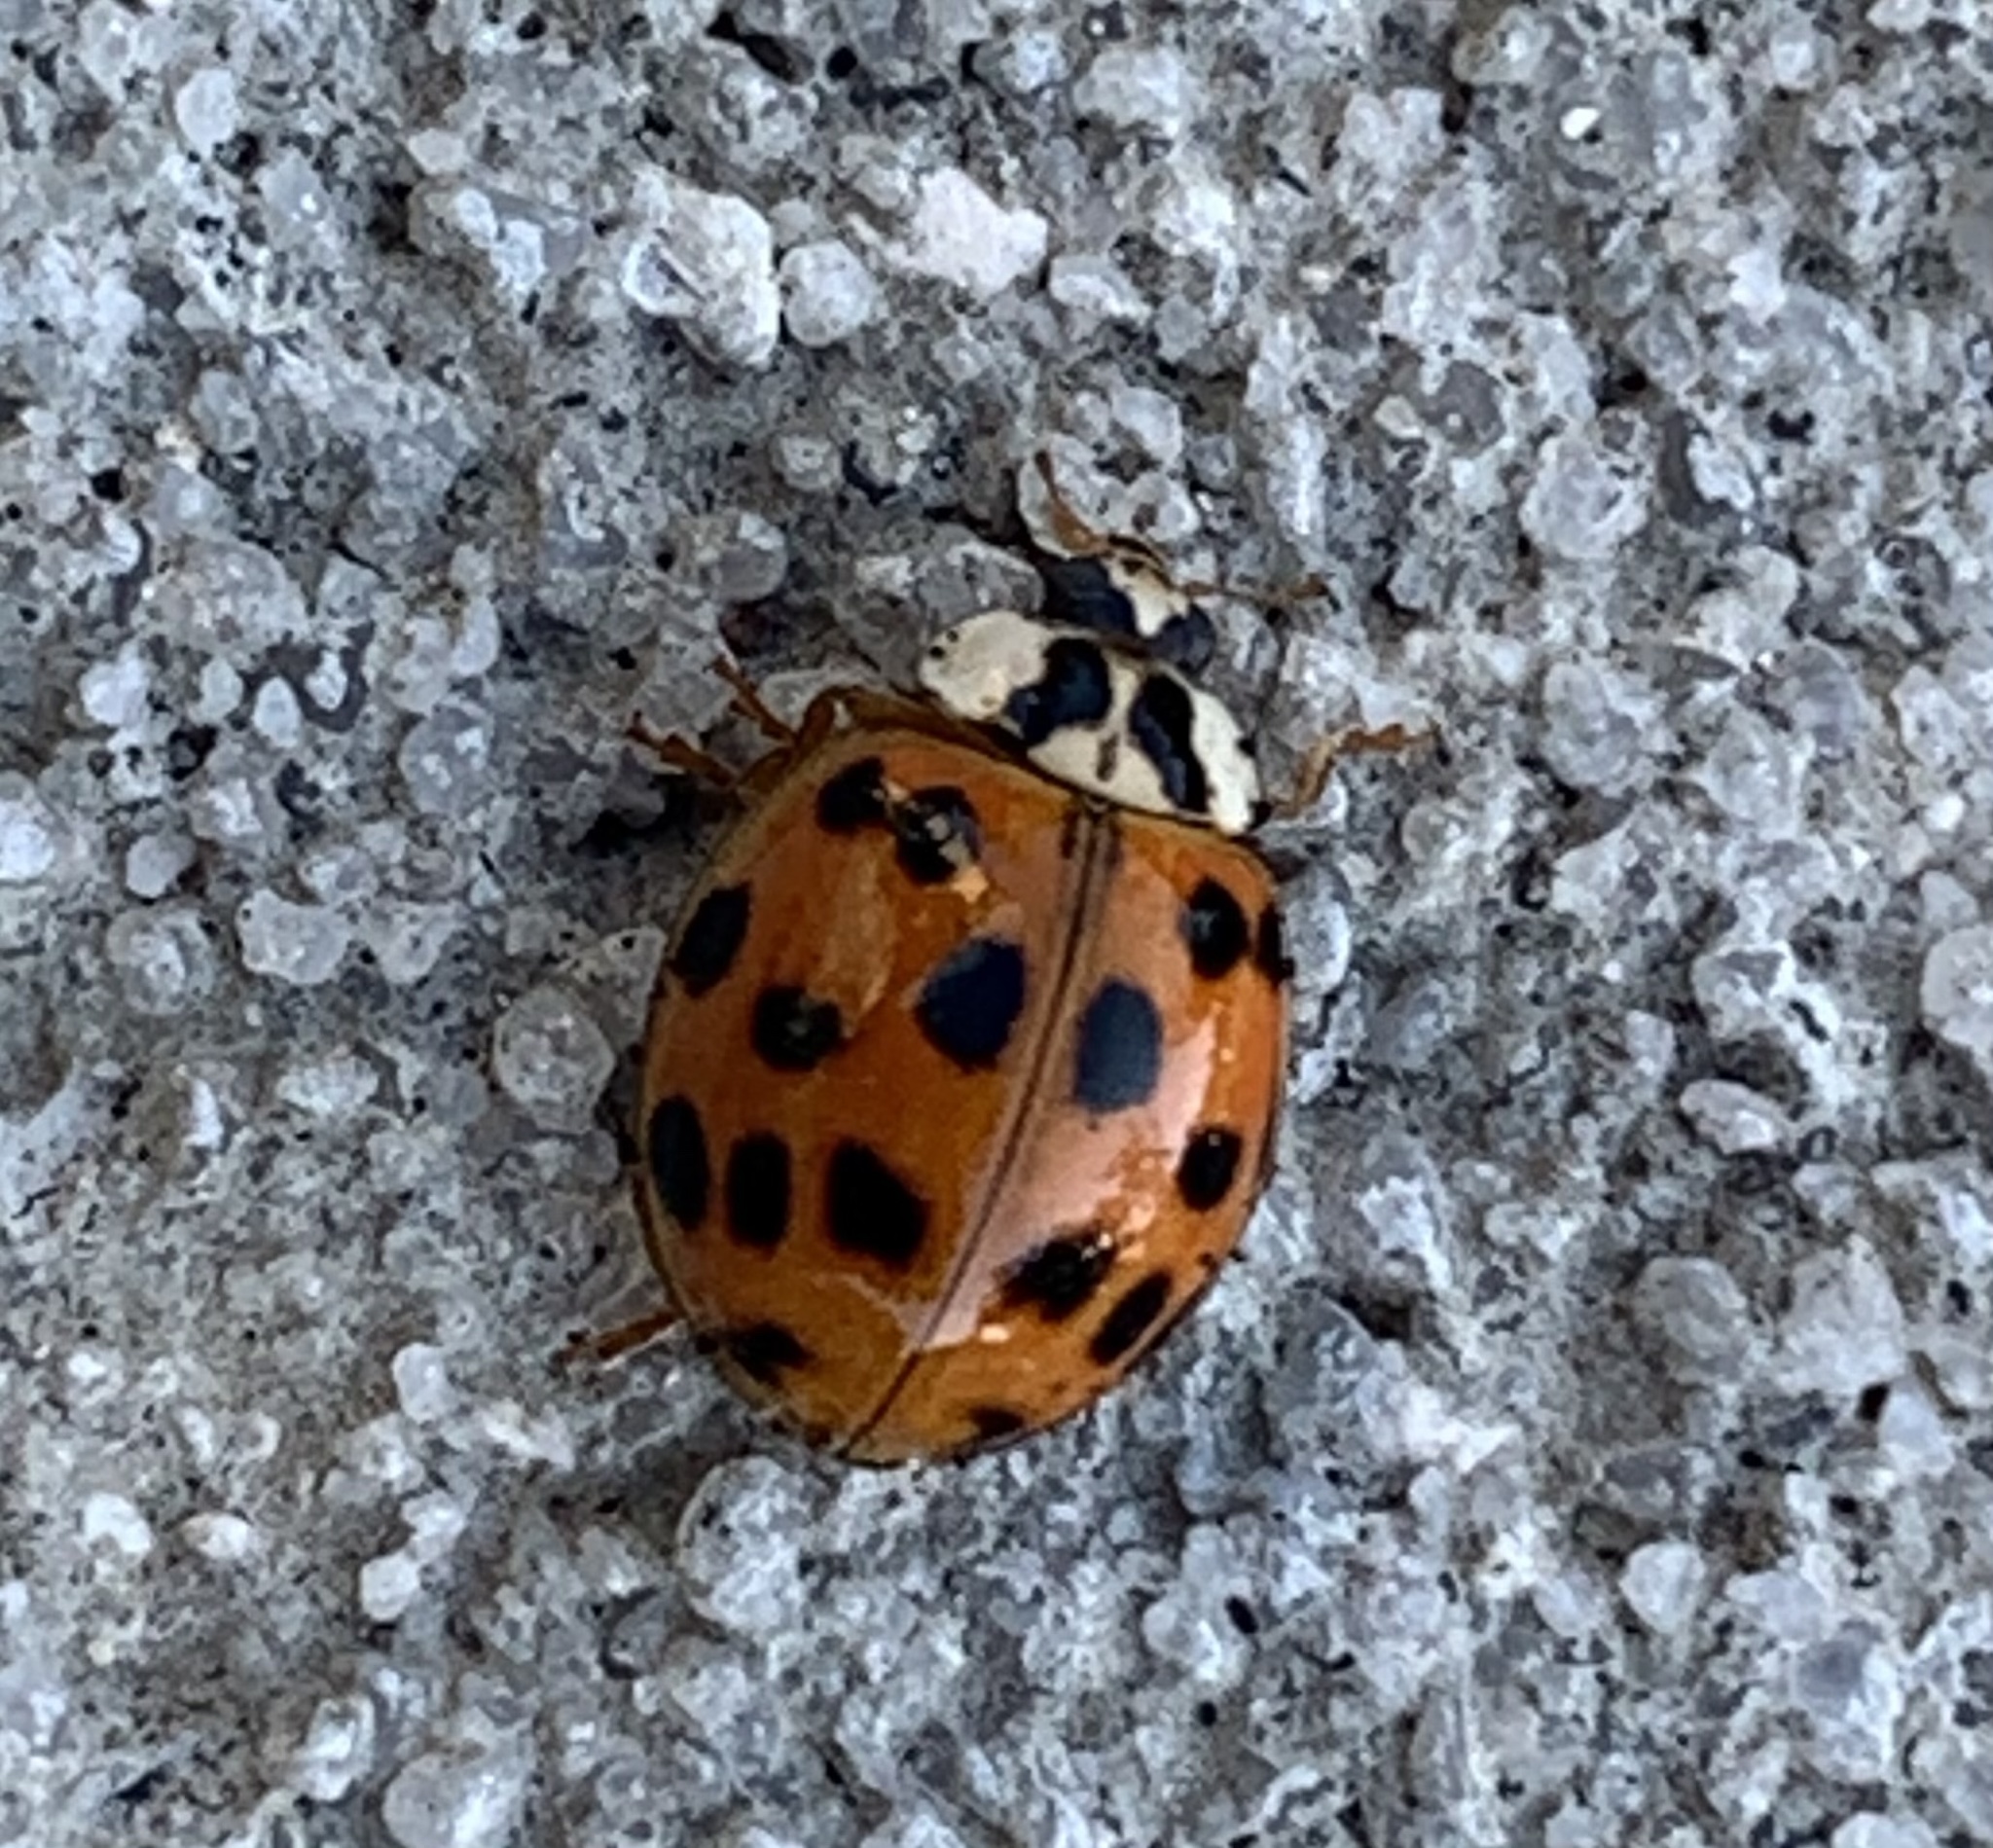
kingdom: Animalia
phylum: Arthropoda
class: Insecta
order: Coleoptera
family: Coccinellidae
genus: Harmonia
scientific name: Harmonia axyridis
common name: Harlequin ladybird
